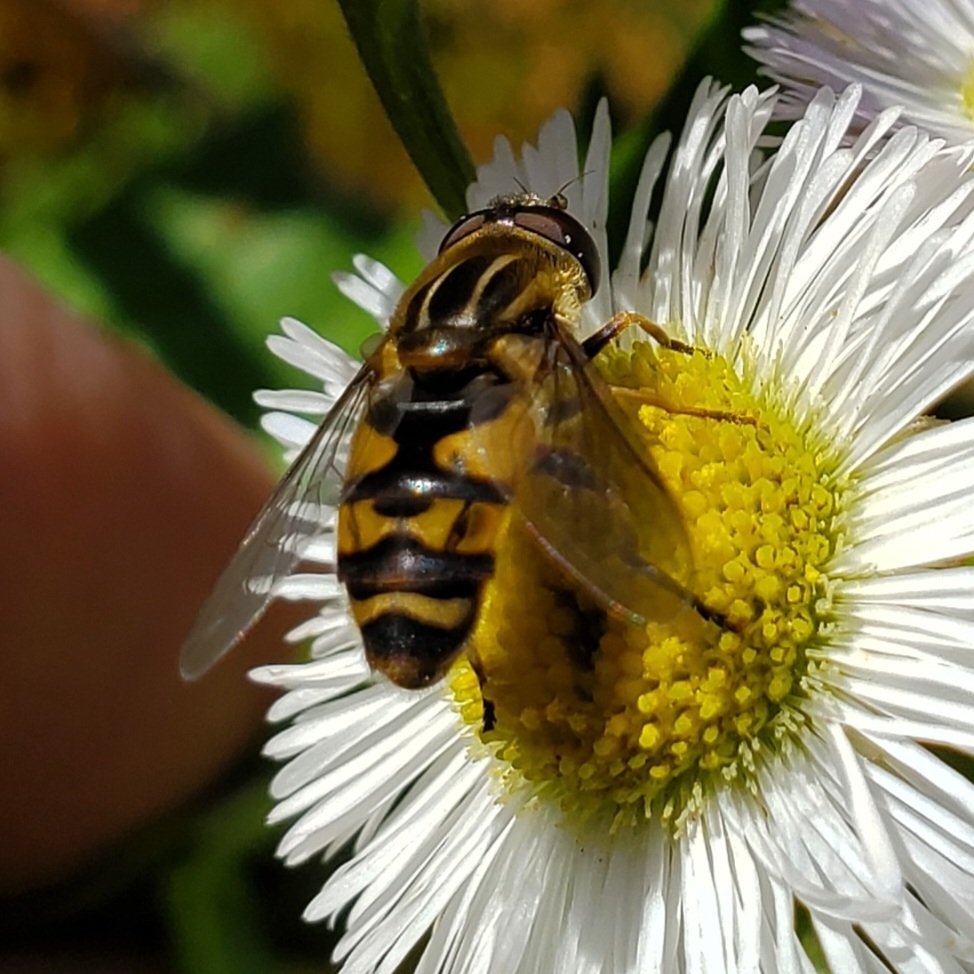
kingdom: Animalia
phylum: Arthropoda
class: Insecta
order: Diptera
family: Syrphidae
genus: Helophilus
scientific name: Helophilus fasciatus
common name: Narrow-headed marsh fly
